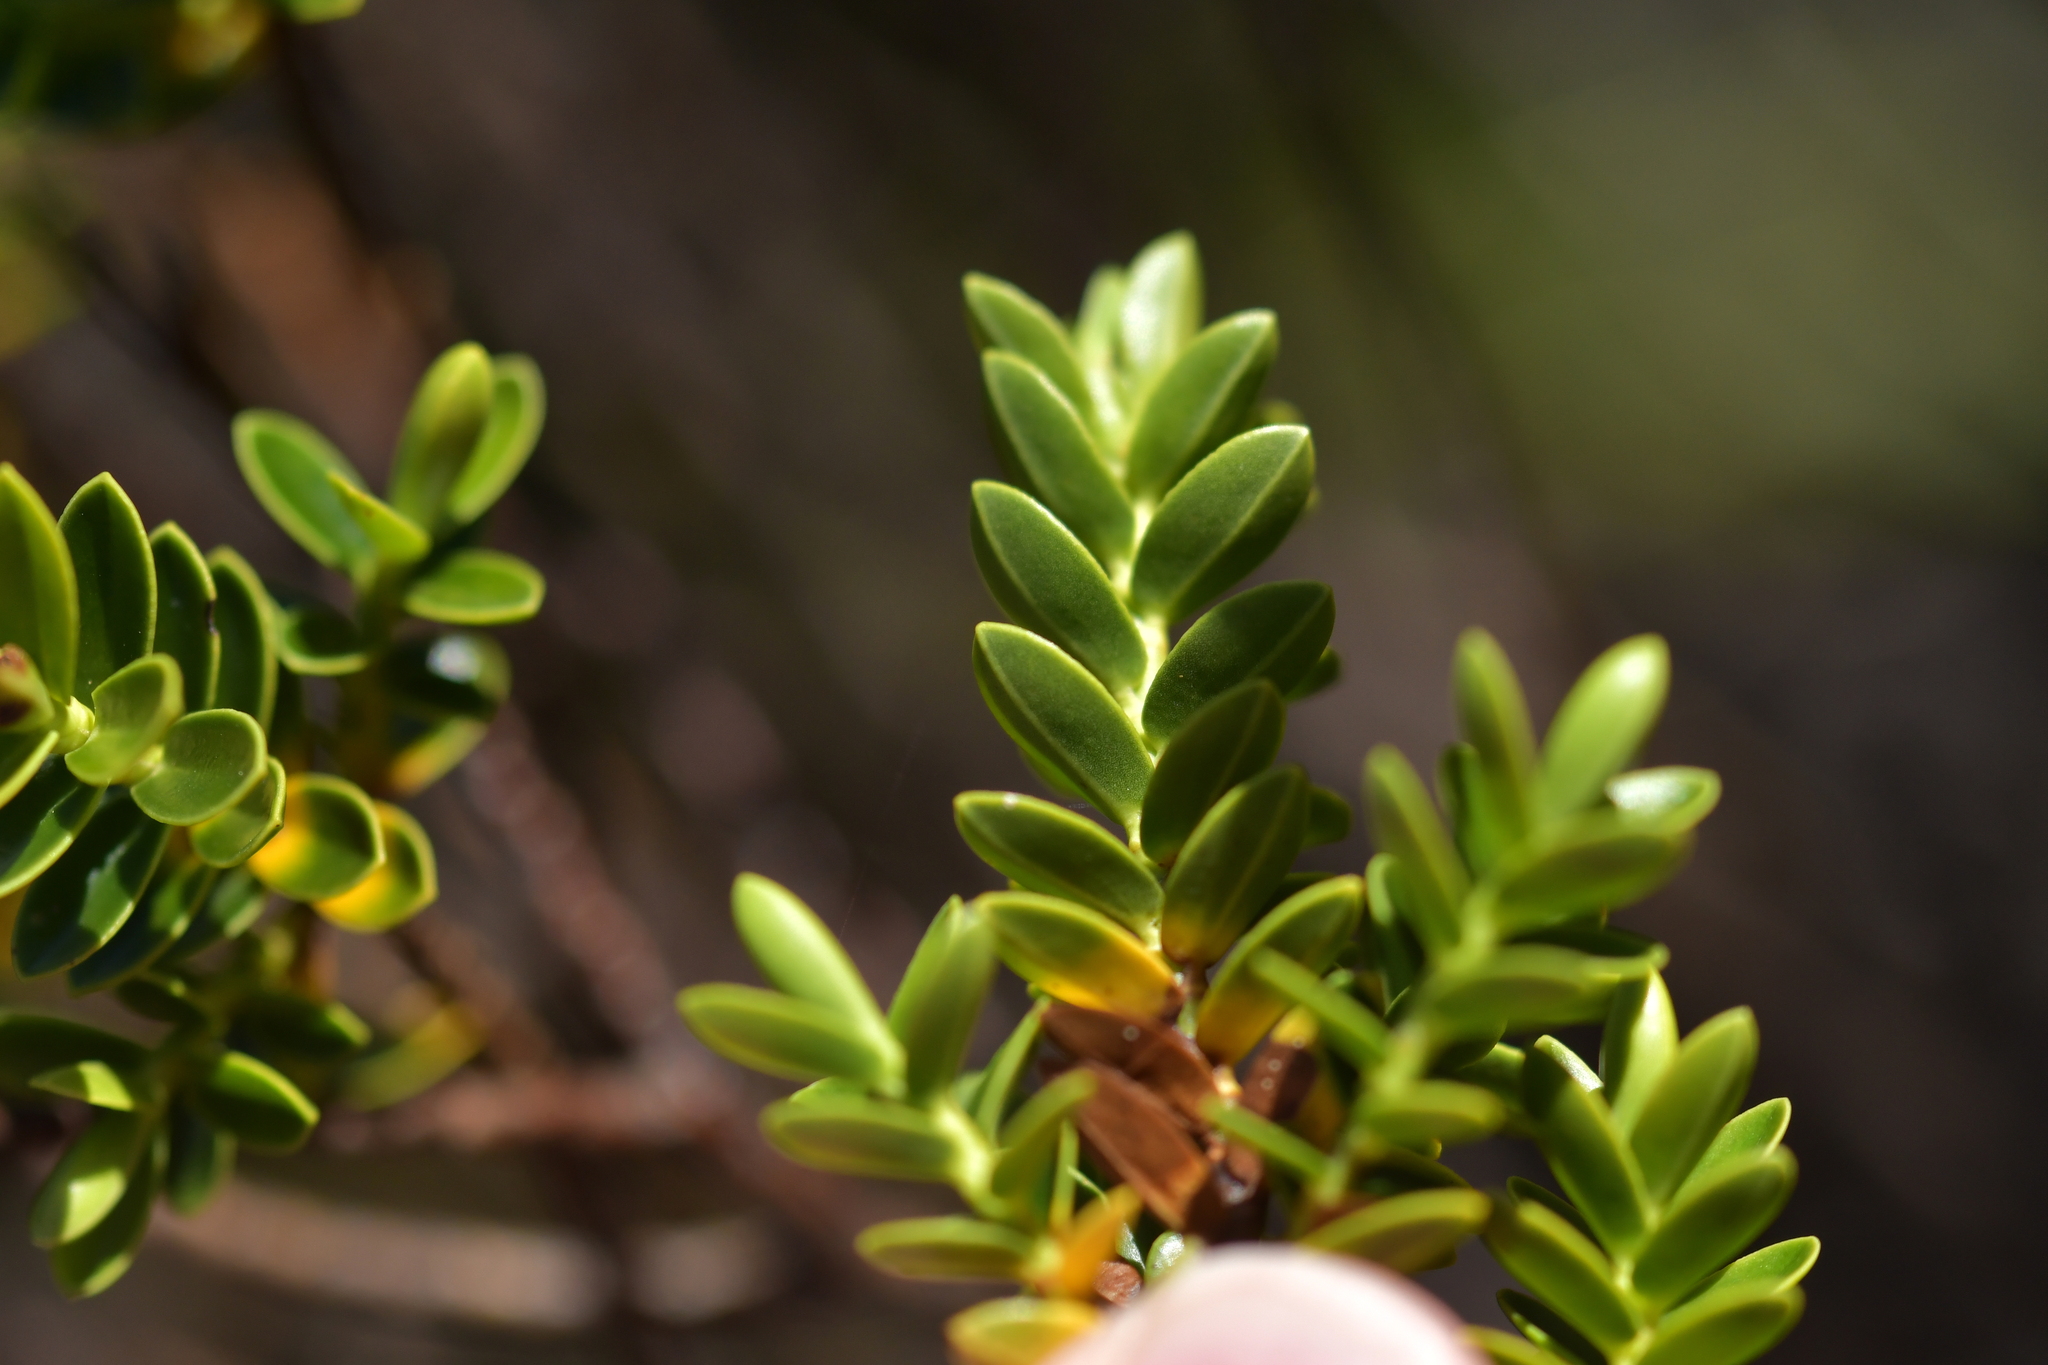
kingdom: Plantae
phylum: Tracheophyta
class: Magnoliopsida
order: Lamiales
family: Plantaginaceae
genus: Veronica
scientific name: Veronica odora
